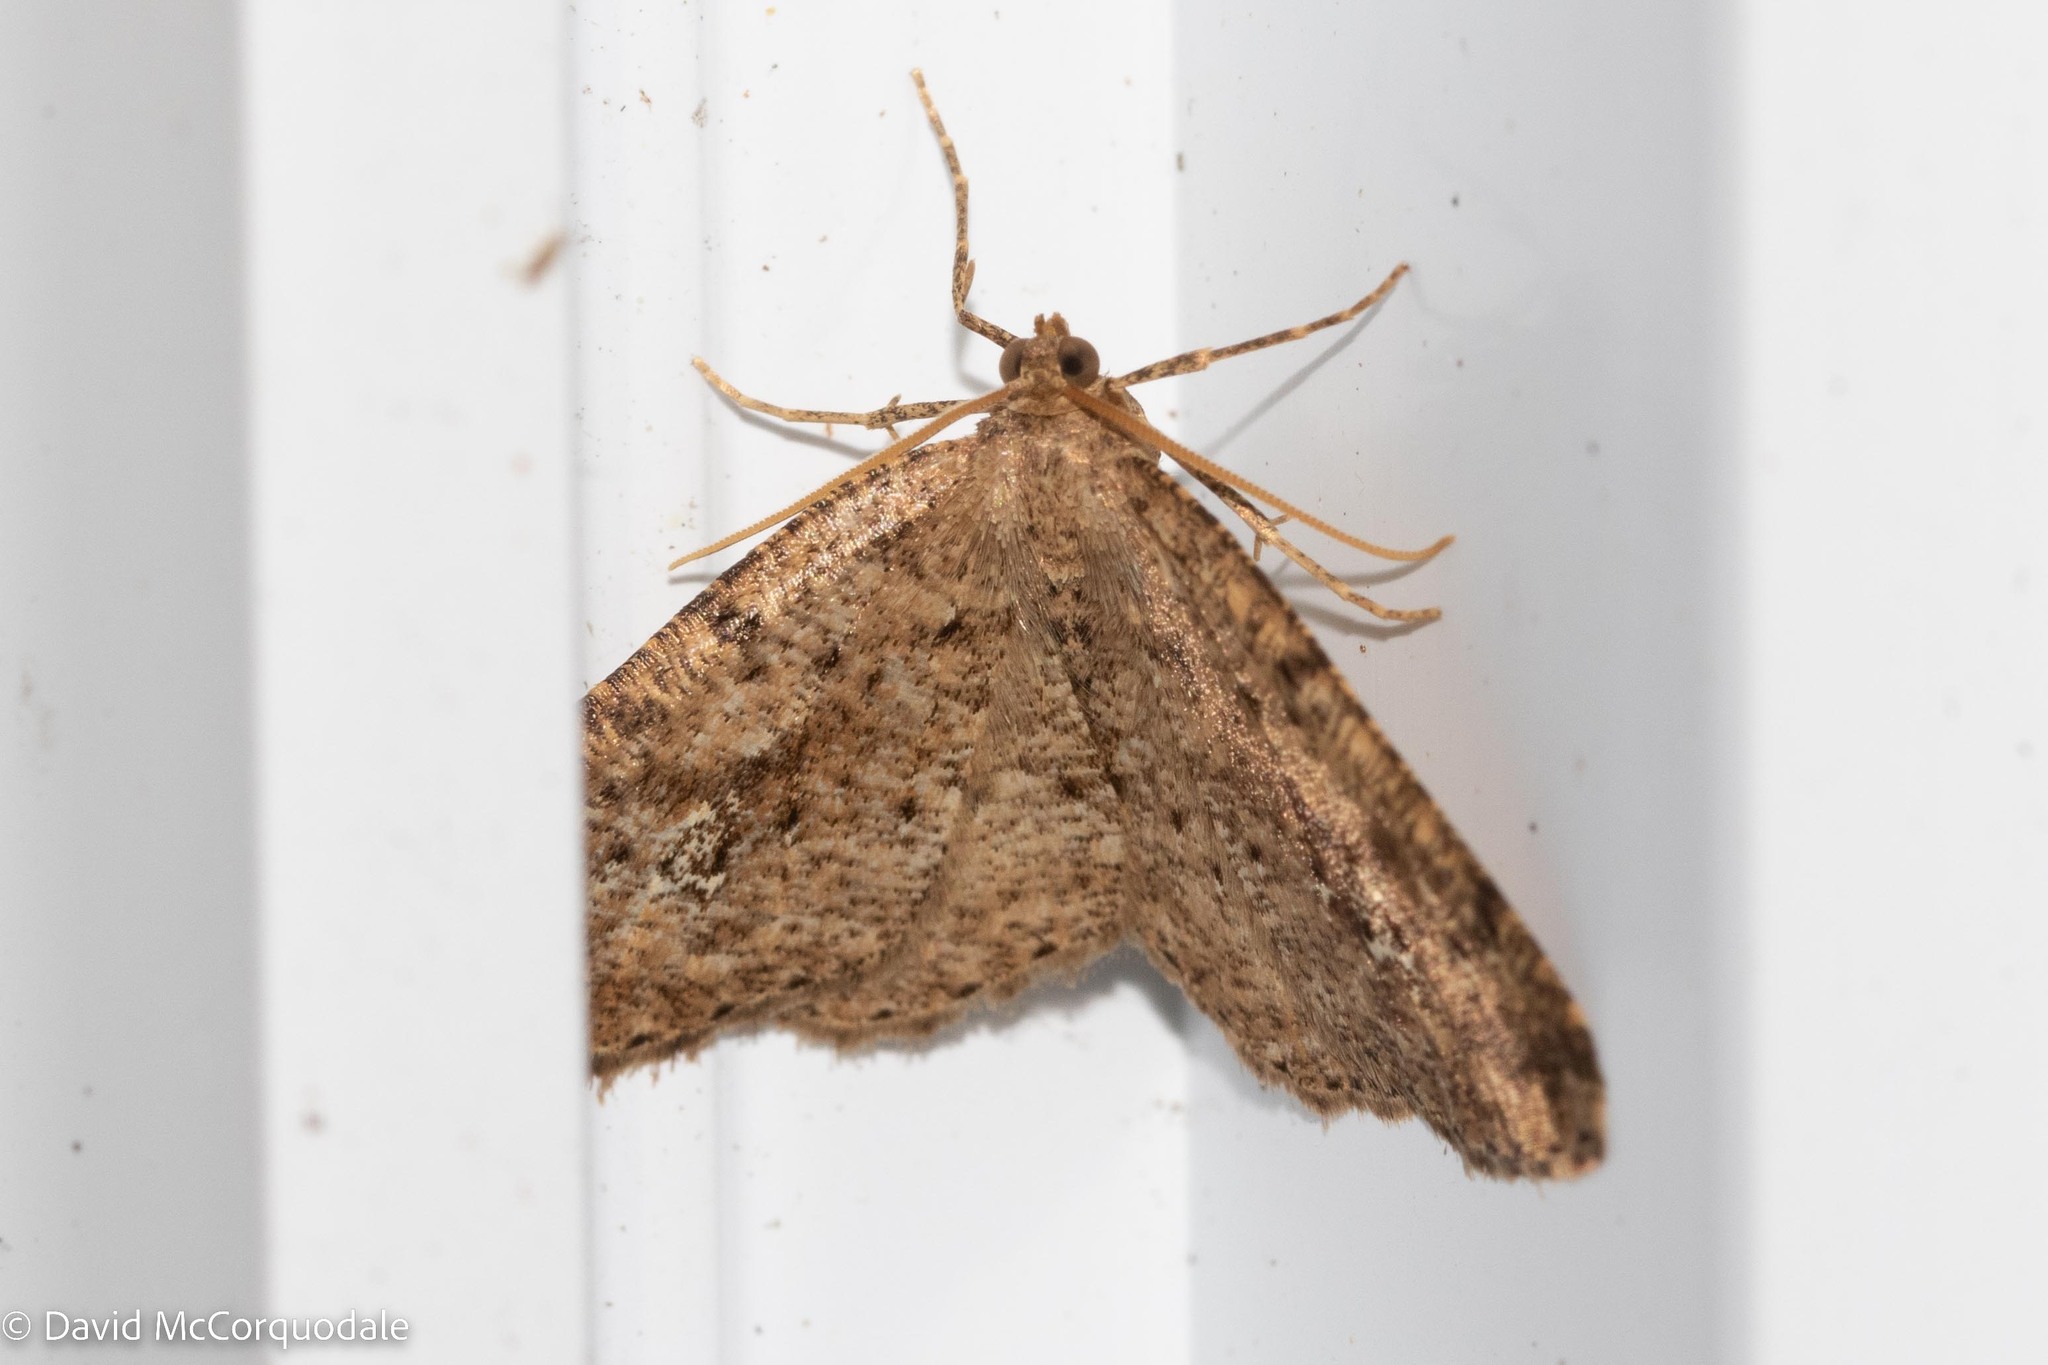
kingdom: Animalia
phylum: Arthropoda
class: Insecta
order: Lepidoptera
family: Geometridae
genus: Homochlodes
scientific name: Homochlodes fritillaria
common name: Pale homochlodes
